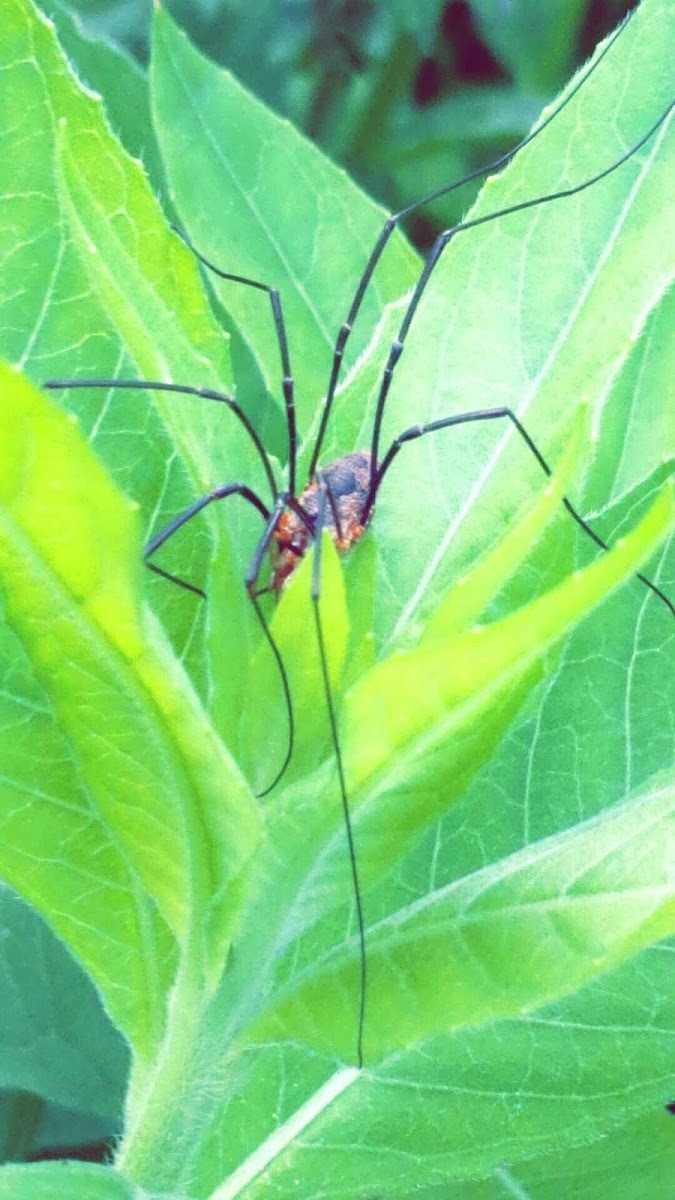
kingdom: Animalia
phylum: Arthropoda
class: Arachnida
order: Opiliones
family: Phalangiidae
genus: Phalangium
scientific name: Phalangium opilio
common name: Daddy longleg
